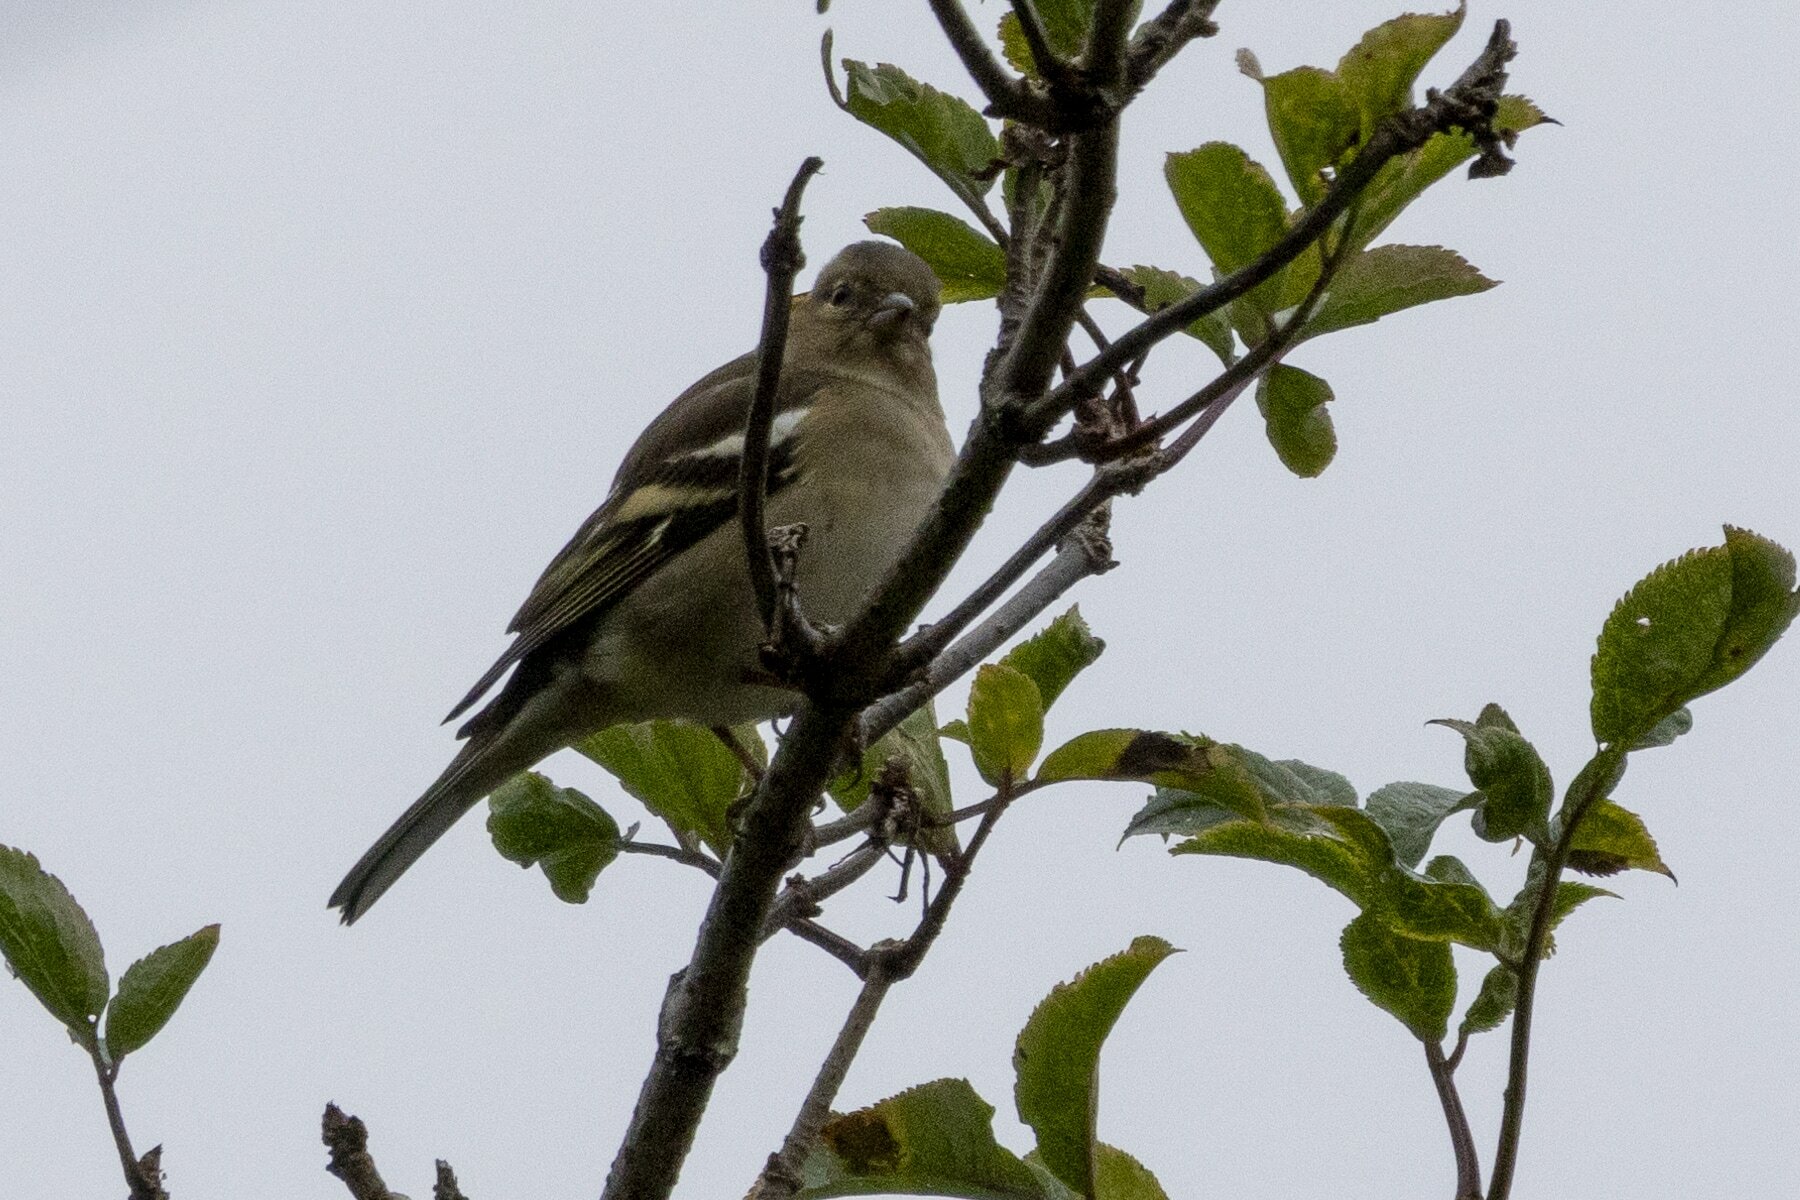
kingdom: Animalia
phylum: Chordata
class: Aves
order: Passeriformes
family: Fringillidae
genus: Fringilla
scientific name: Fringilla coelebs
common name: Common chaffinch
